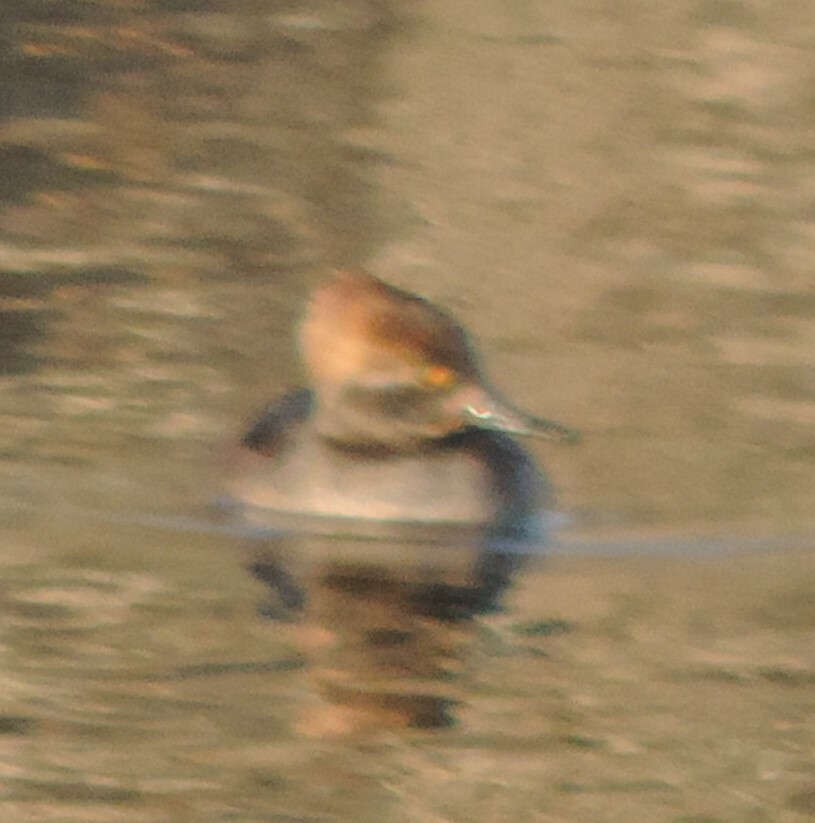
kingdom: Animalia
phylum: Chordata
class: Aves
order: Anseriformes
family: Anatidae
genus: Lophodytes
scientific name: Lophodytes cucullatus
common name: Hooded merganser
